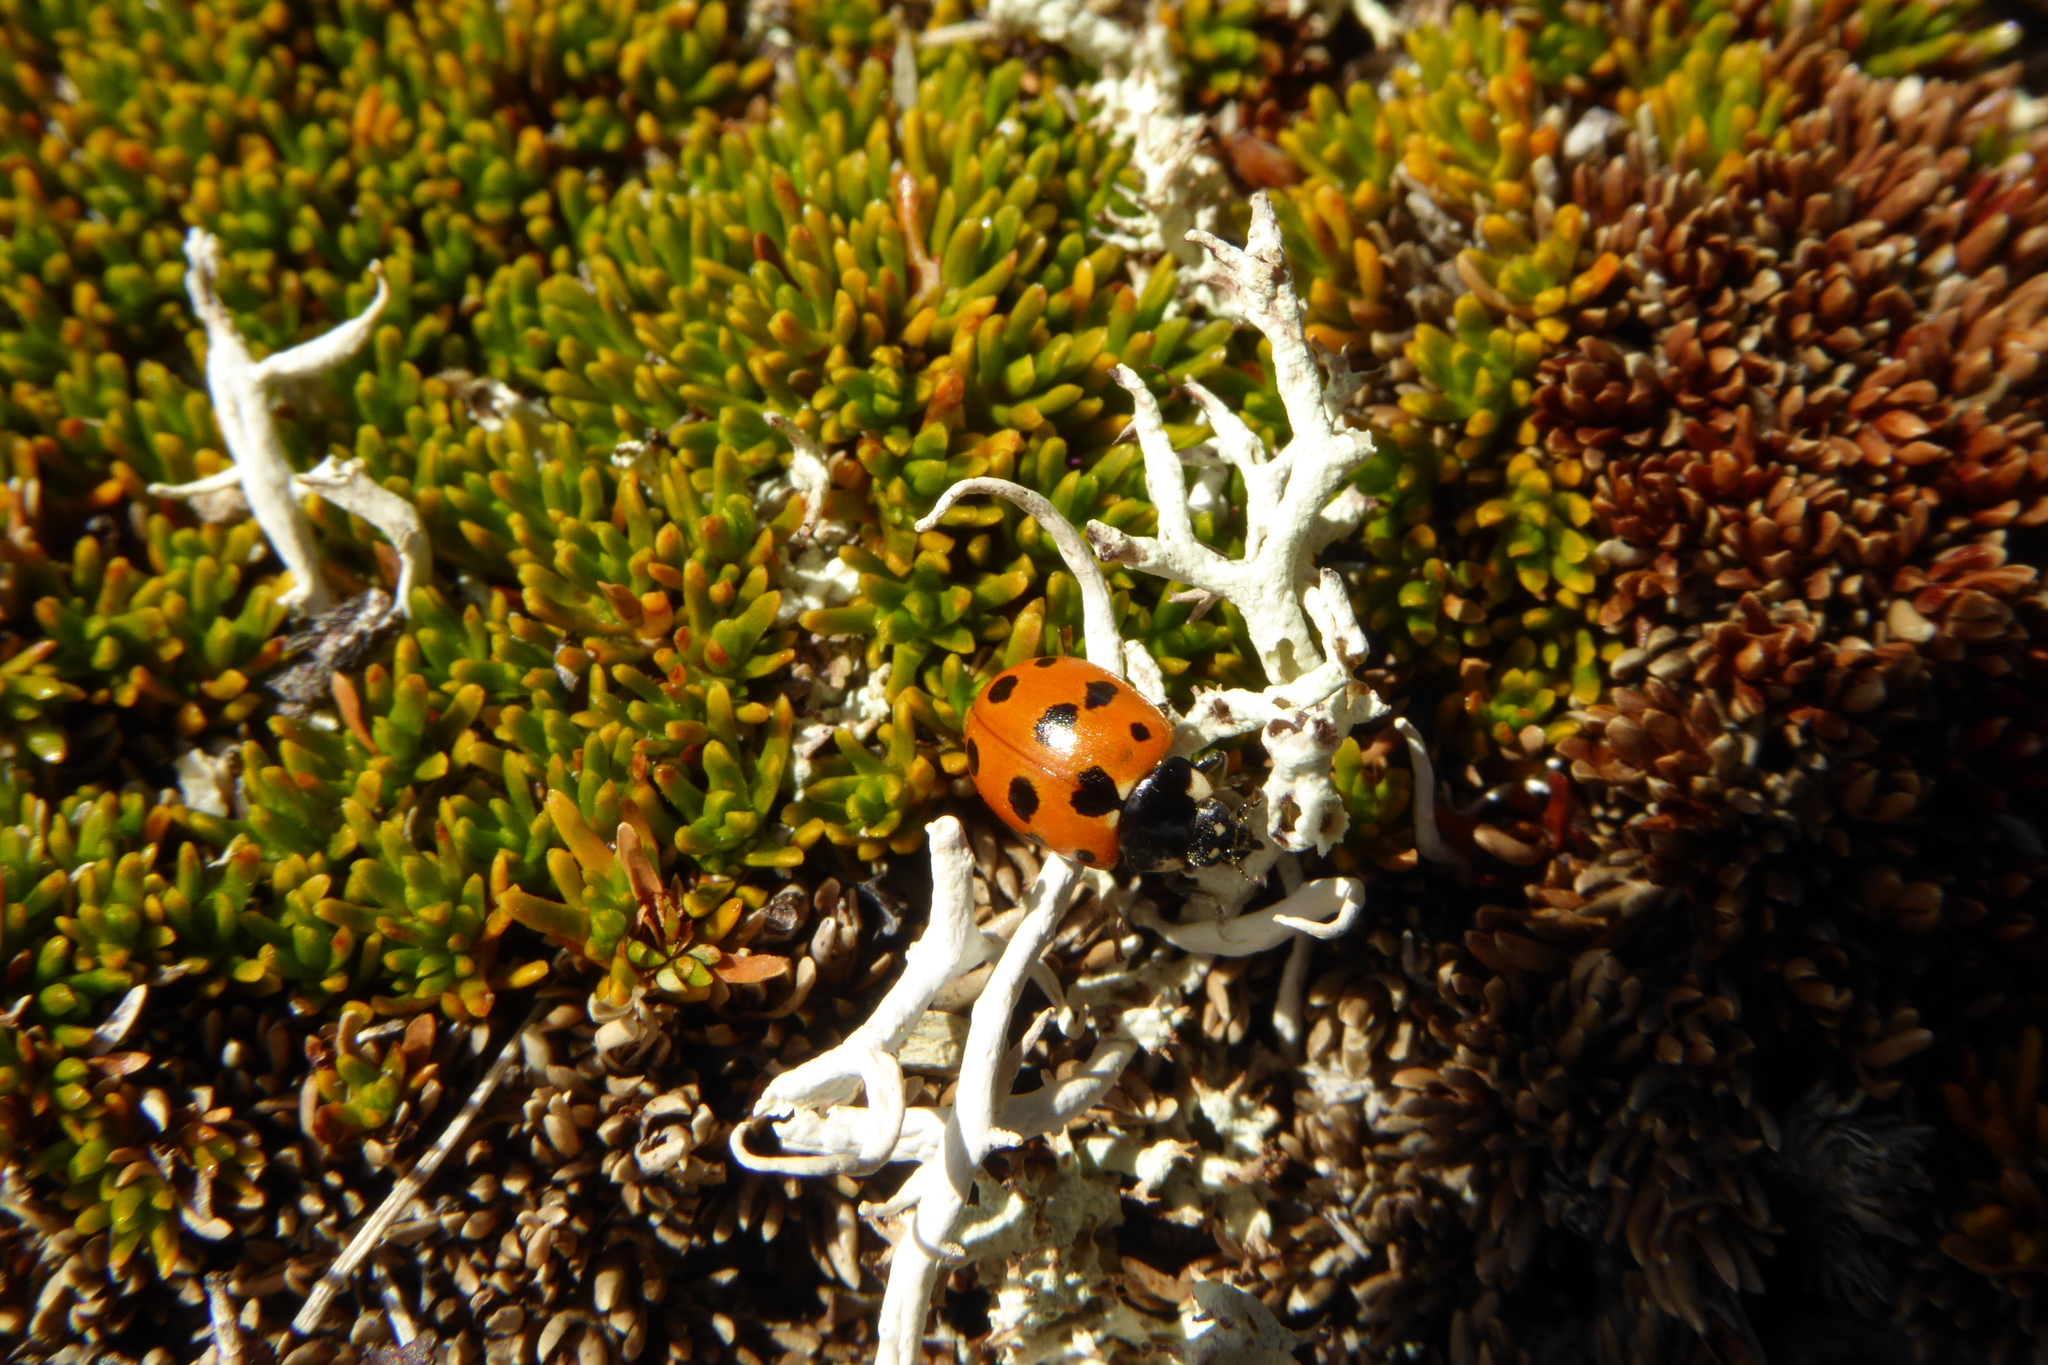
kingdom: Animalia
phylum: Arthropoda
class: Insecta
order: Coleoptera
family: Coccinellidae
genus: Coccinella
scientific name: Coccinella undecimpunctata
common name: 11-spot ladybird
